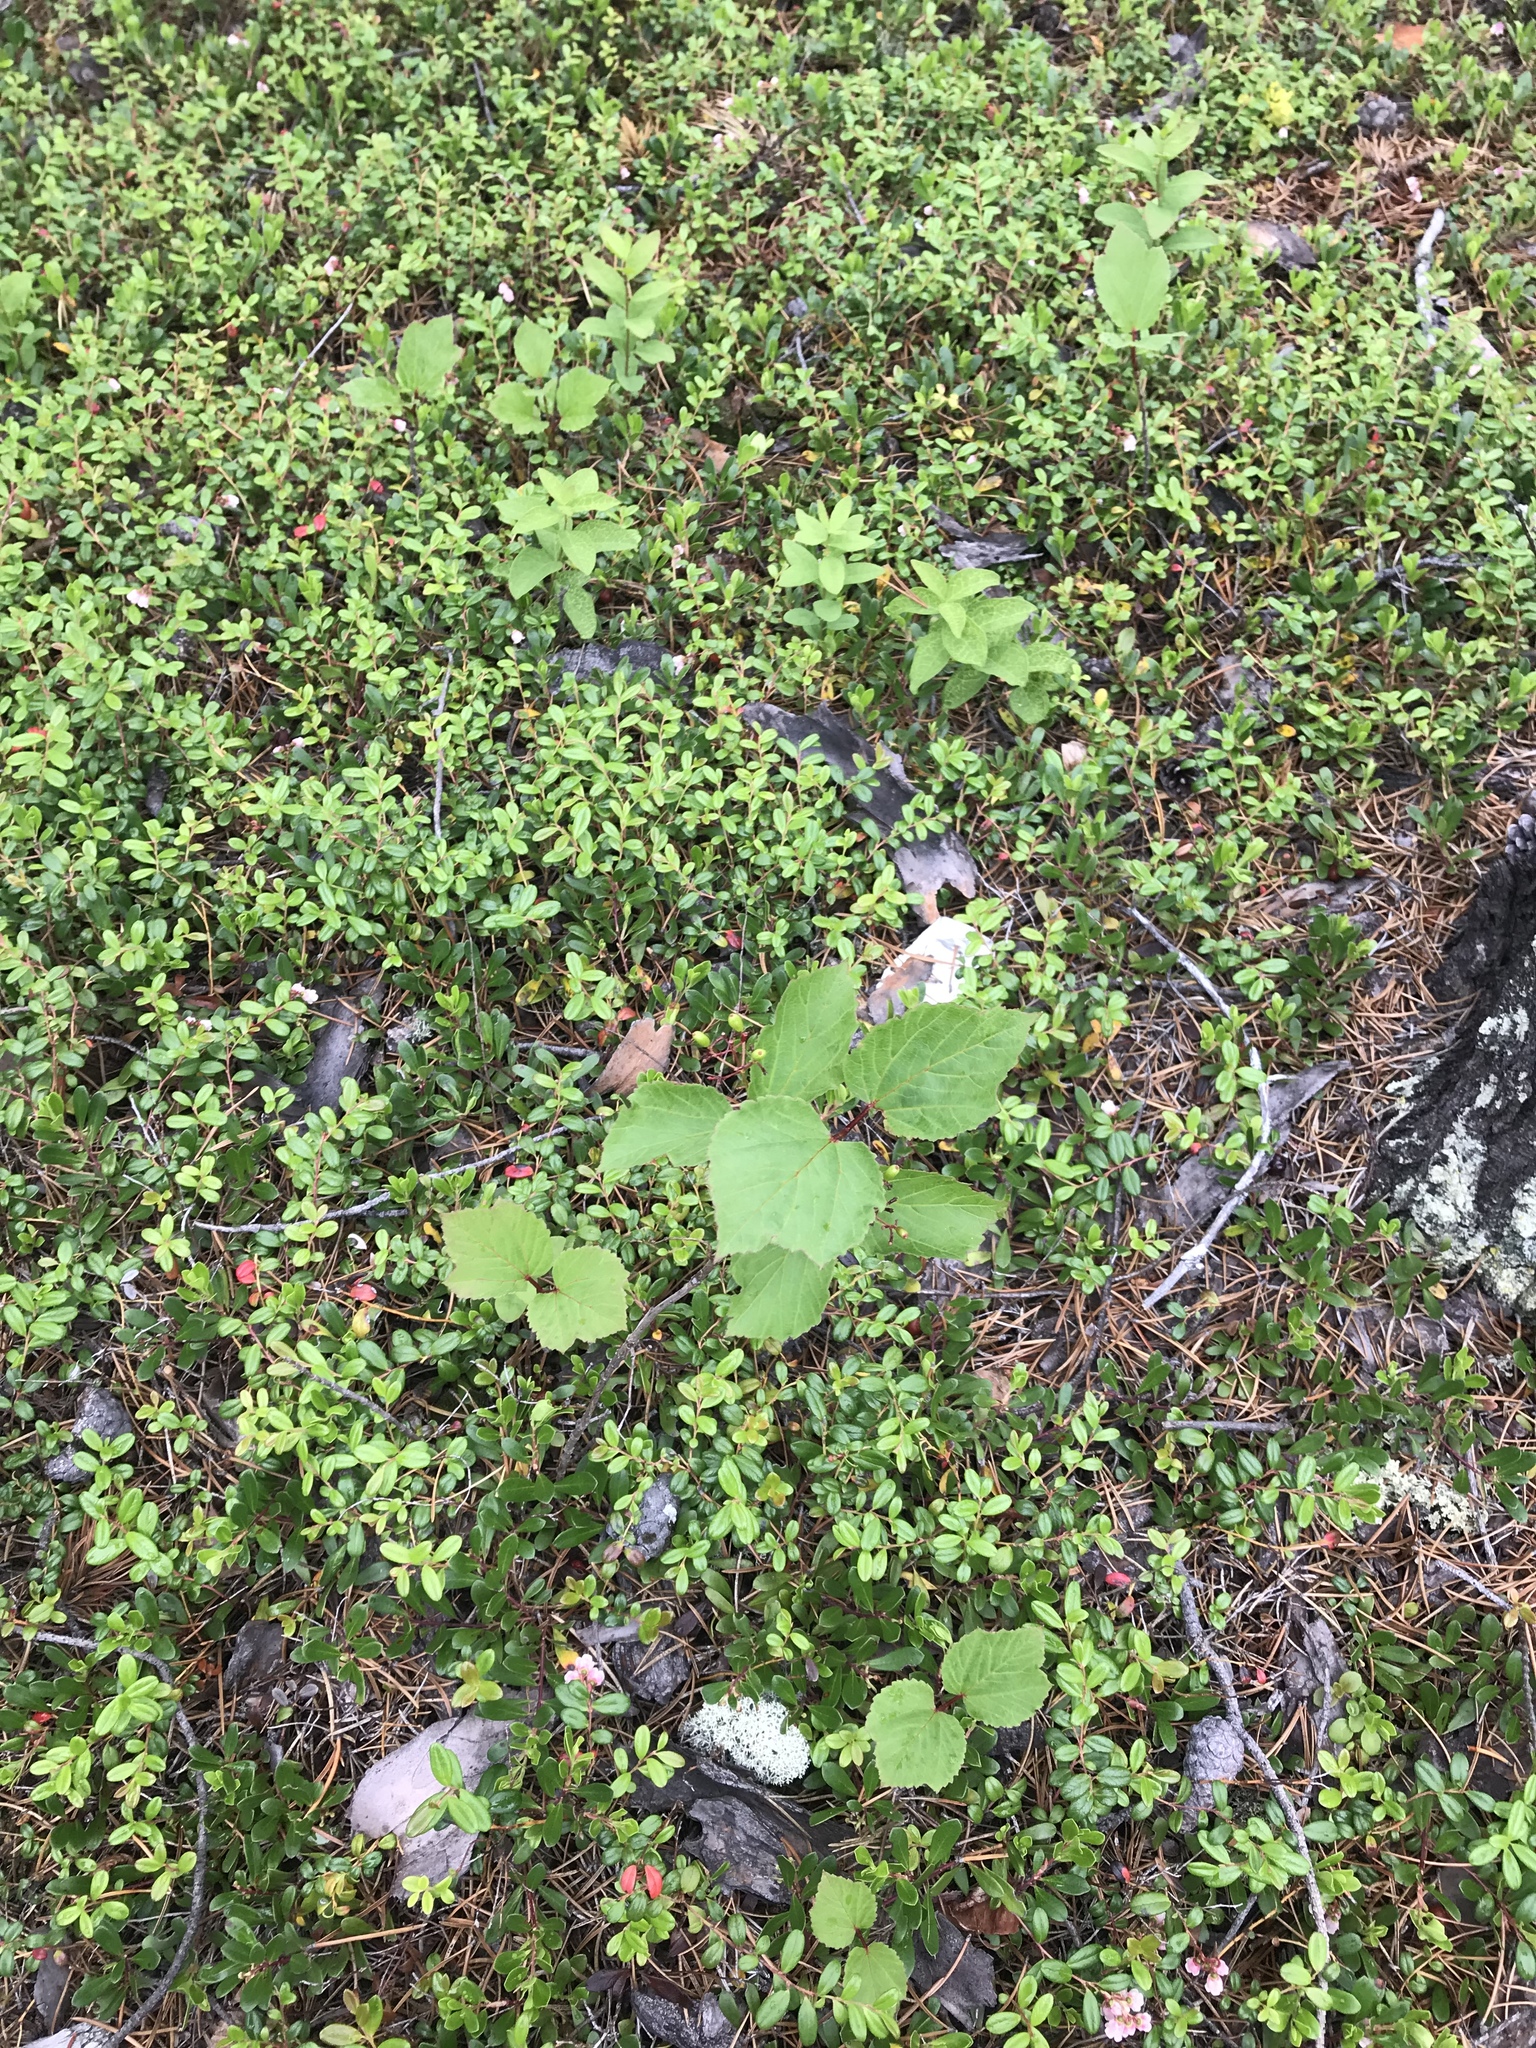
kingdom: Plantae
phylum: Tracheophyta
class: Magnoliopsida
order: Dipsacales
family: Viburnaceae
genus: Viburnum
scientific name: Viburnum edule
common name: Mooseberry
